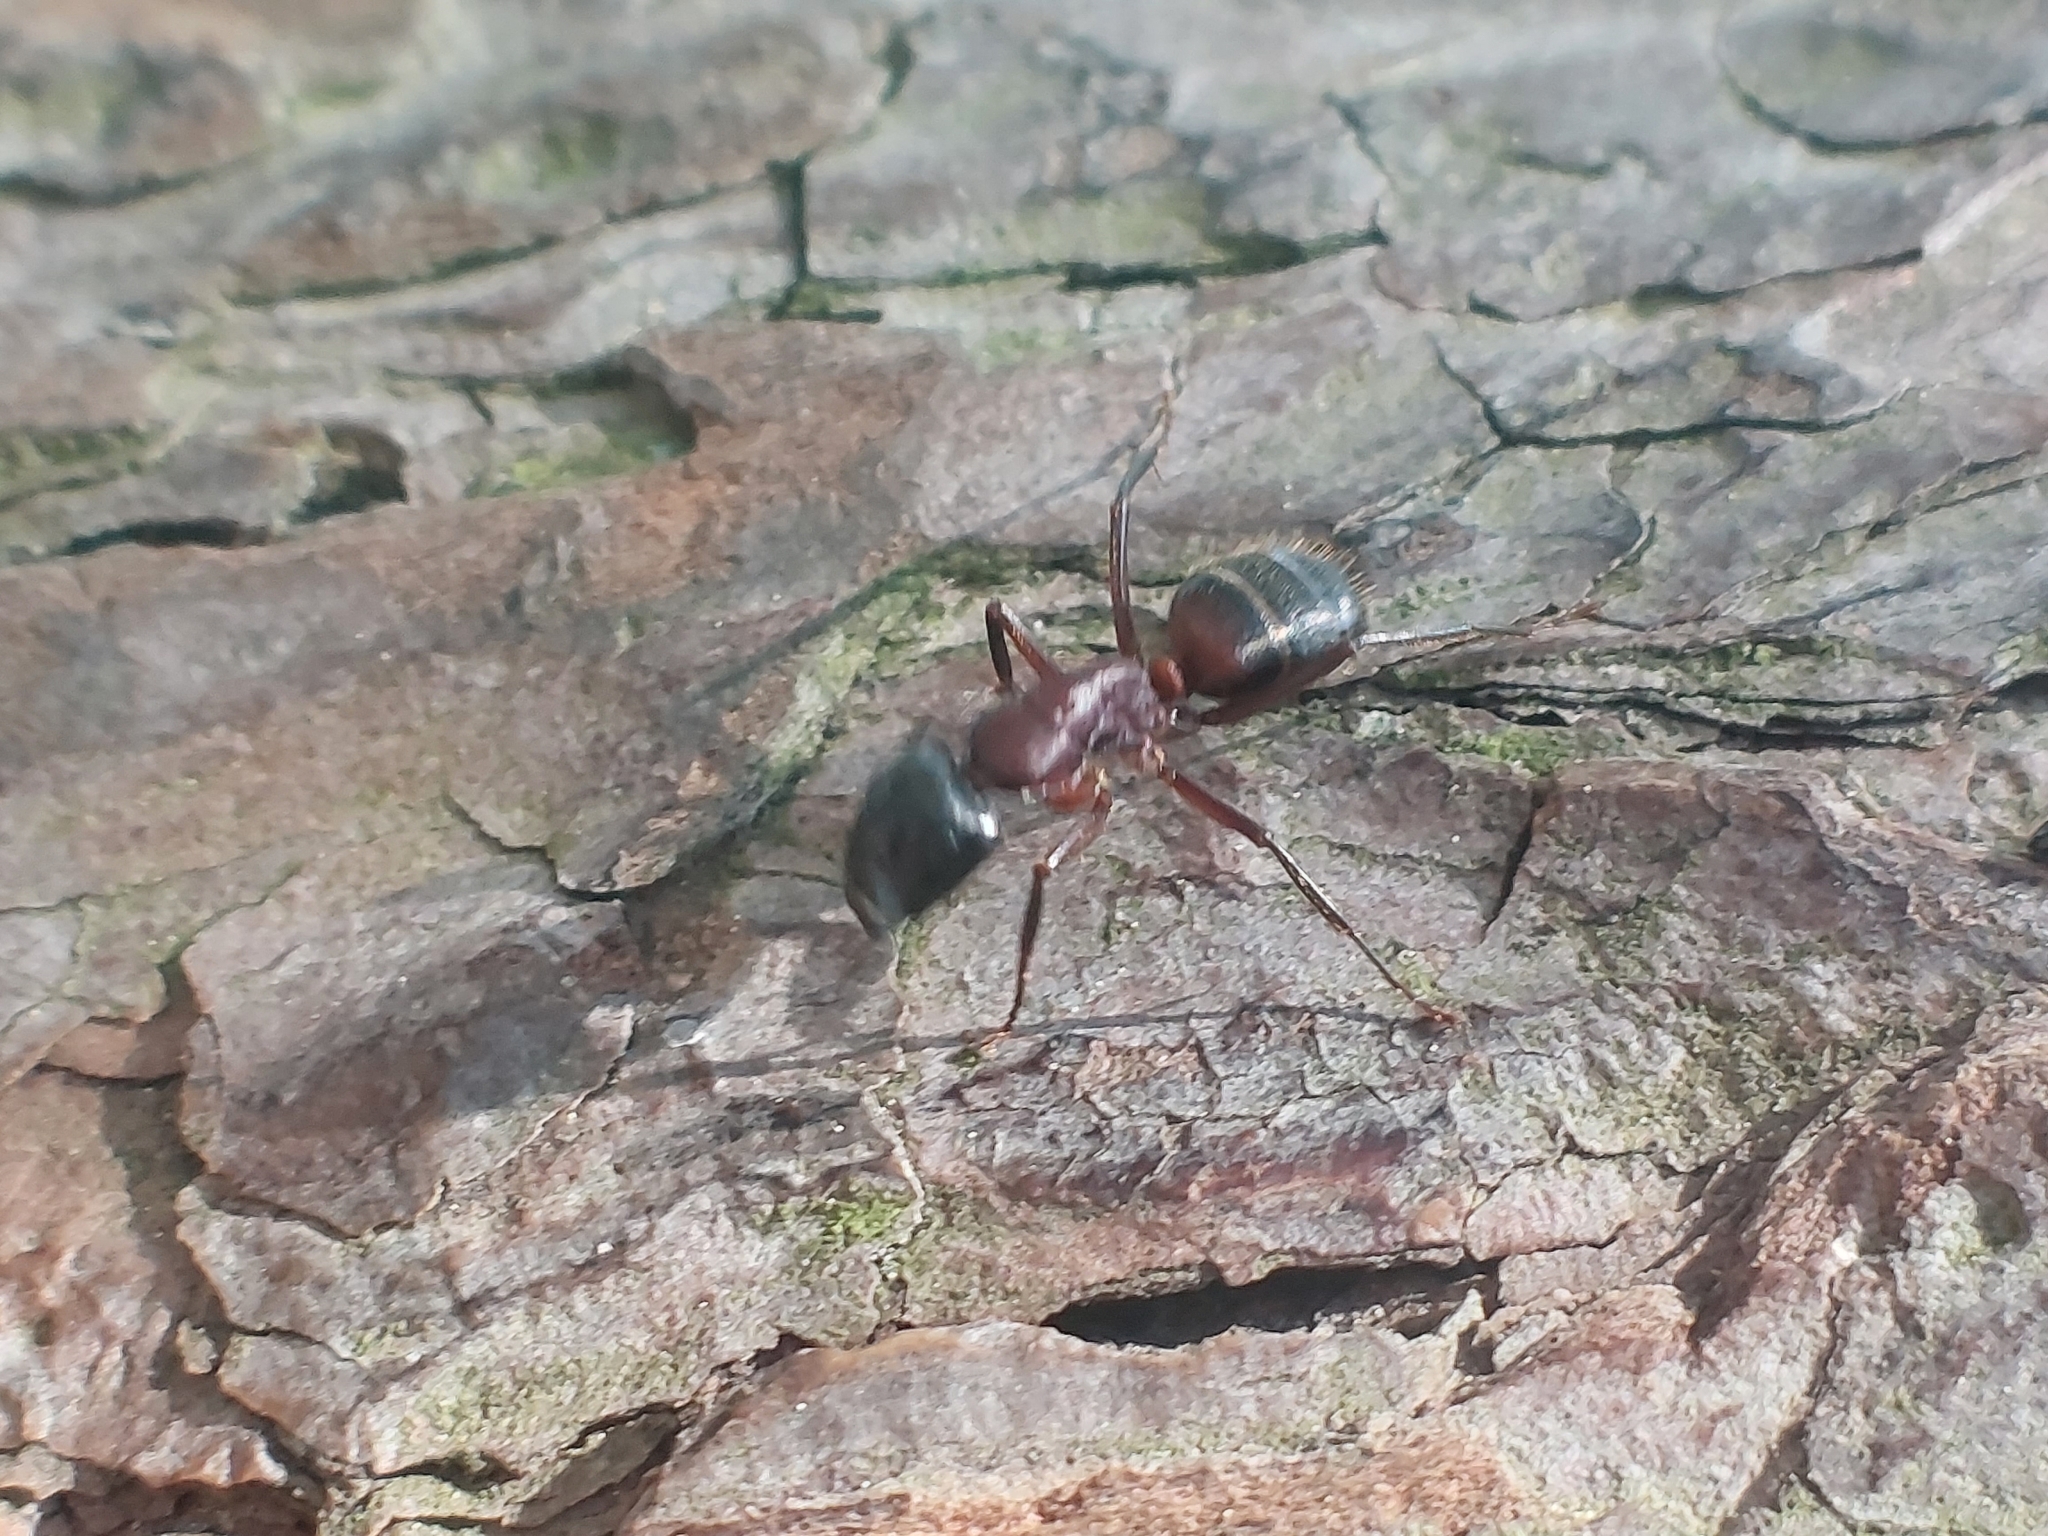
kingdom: Animalia
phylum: Arthropoda
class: Insecta
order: Hymenoptera
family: Formicidae
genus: Camponotus
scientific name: Camponotus ligniperdus
